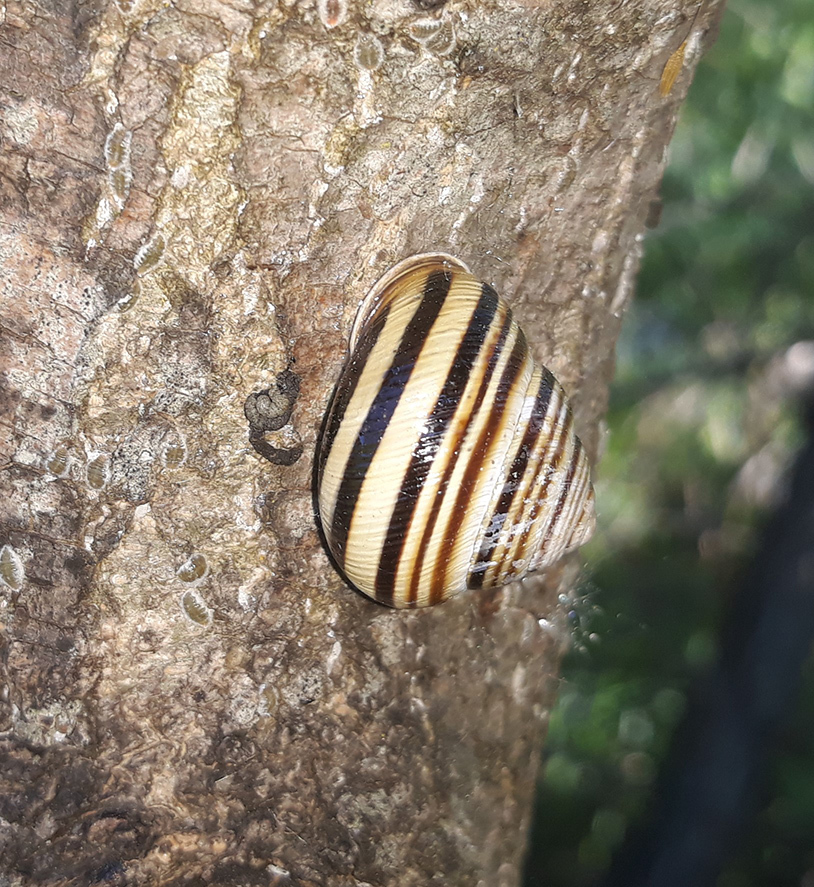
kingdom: Animalia
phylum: Mollusca
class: Gastropoda
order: Stylommatophora
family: Helicidae
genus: Caucasotachea
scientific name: Caucasotachea vindobonensis
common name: European helicid land snail
